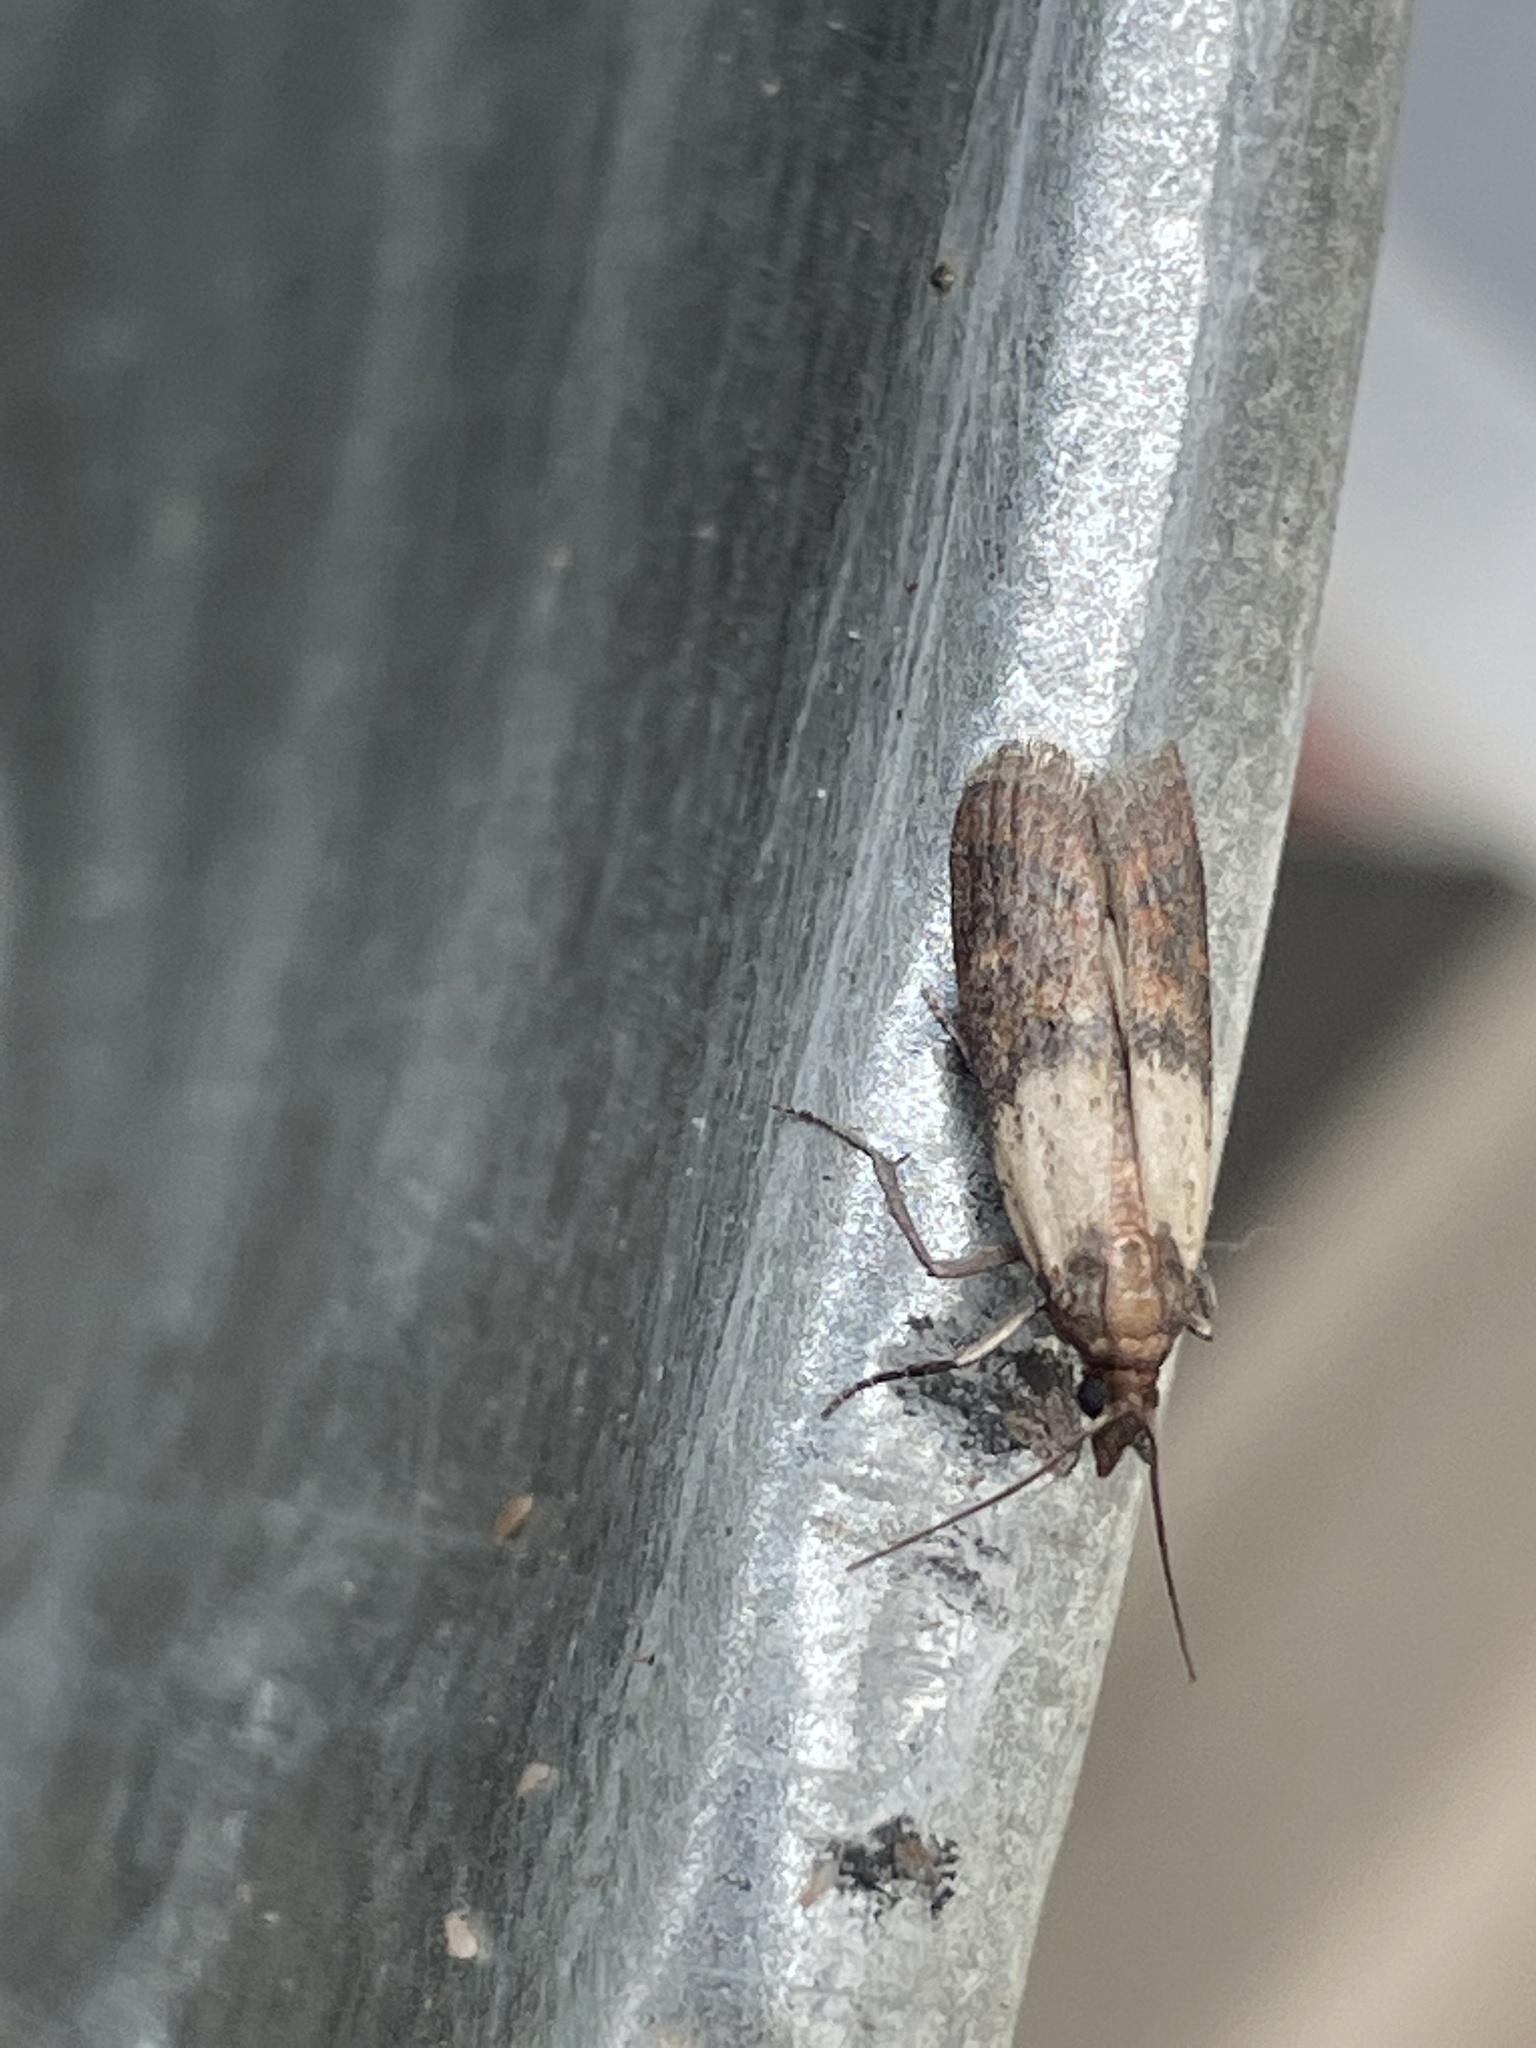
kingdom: Animalia
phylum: Arthropoda
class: Insecta
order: Lepidoptera
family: Pyralidae
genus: Plodia
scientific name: Plodia interpunctella
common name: Indian meal moth
